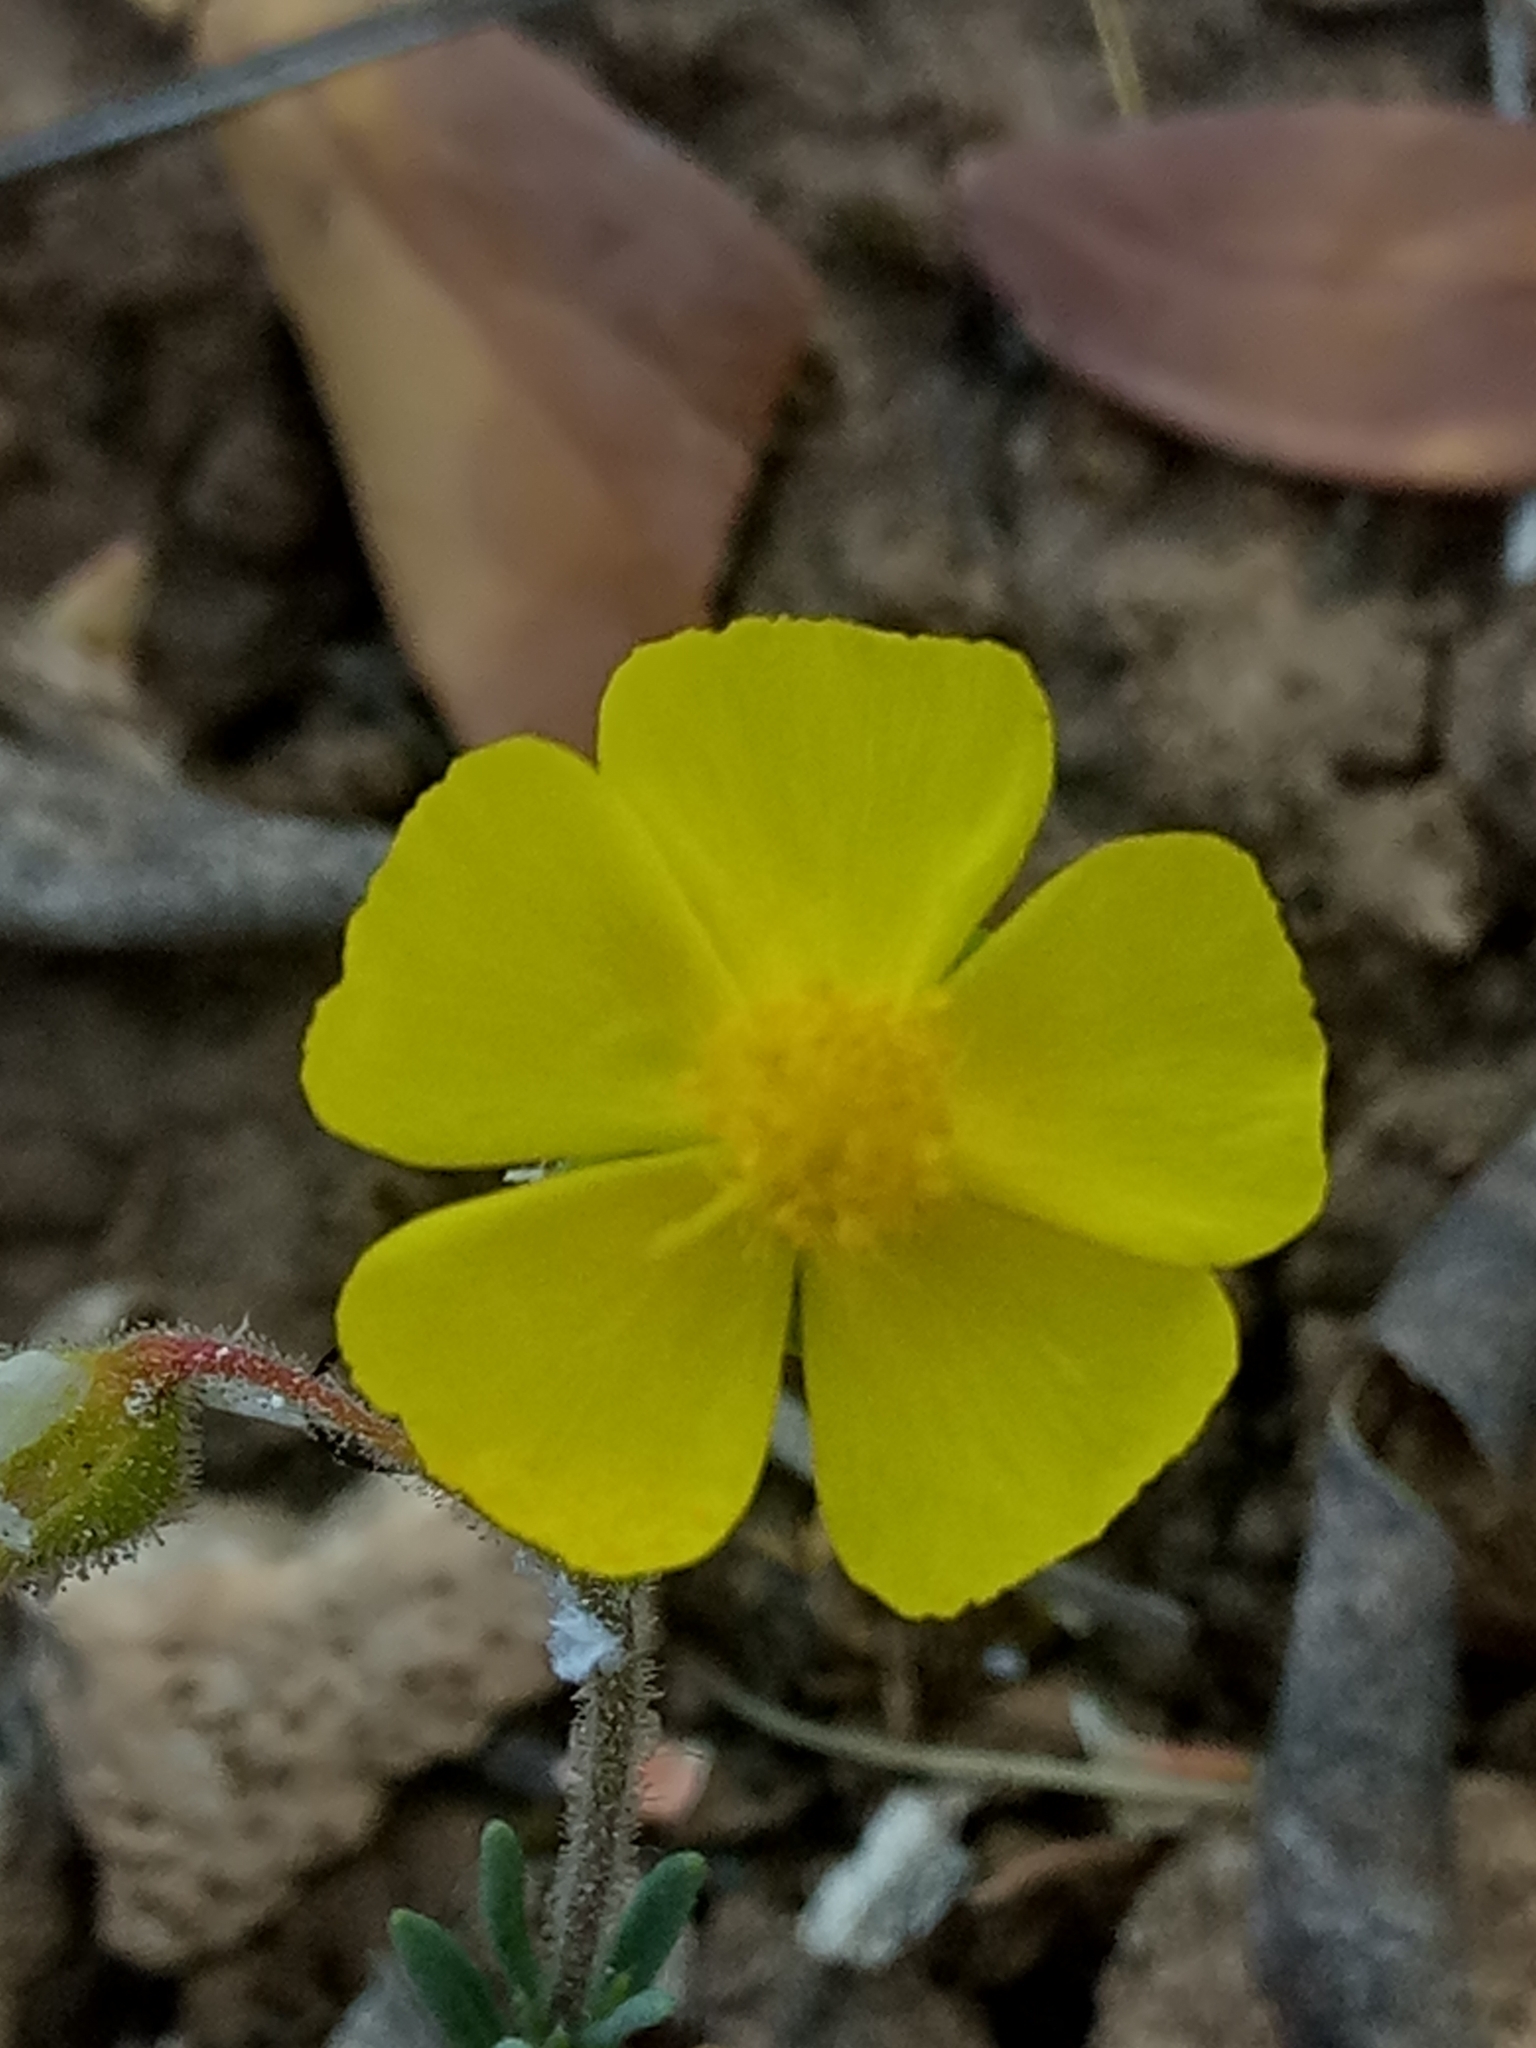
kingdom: Plantae
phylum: Tracheophyta
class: Magnoliopsida
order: Malvales
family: Cistaceae
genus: Fumana
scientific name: Fumana laevis
